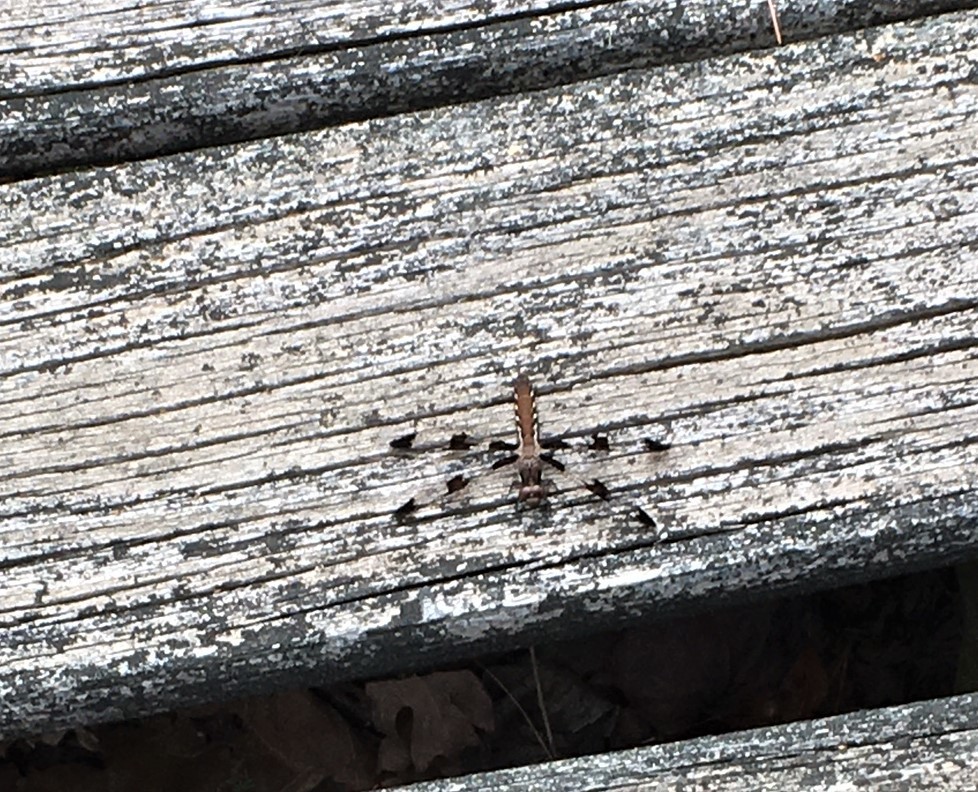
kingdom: Animalia
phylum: Arthropoda
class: Insecta
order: Odonata
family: Libellulidae
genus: Plathemis
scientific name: Plathemis lydia
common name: Common whitetail
